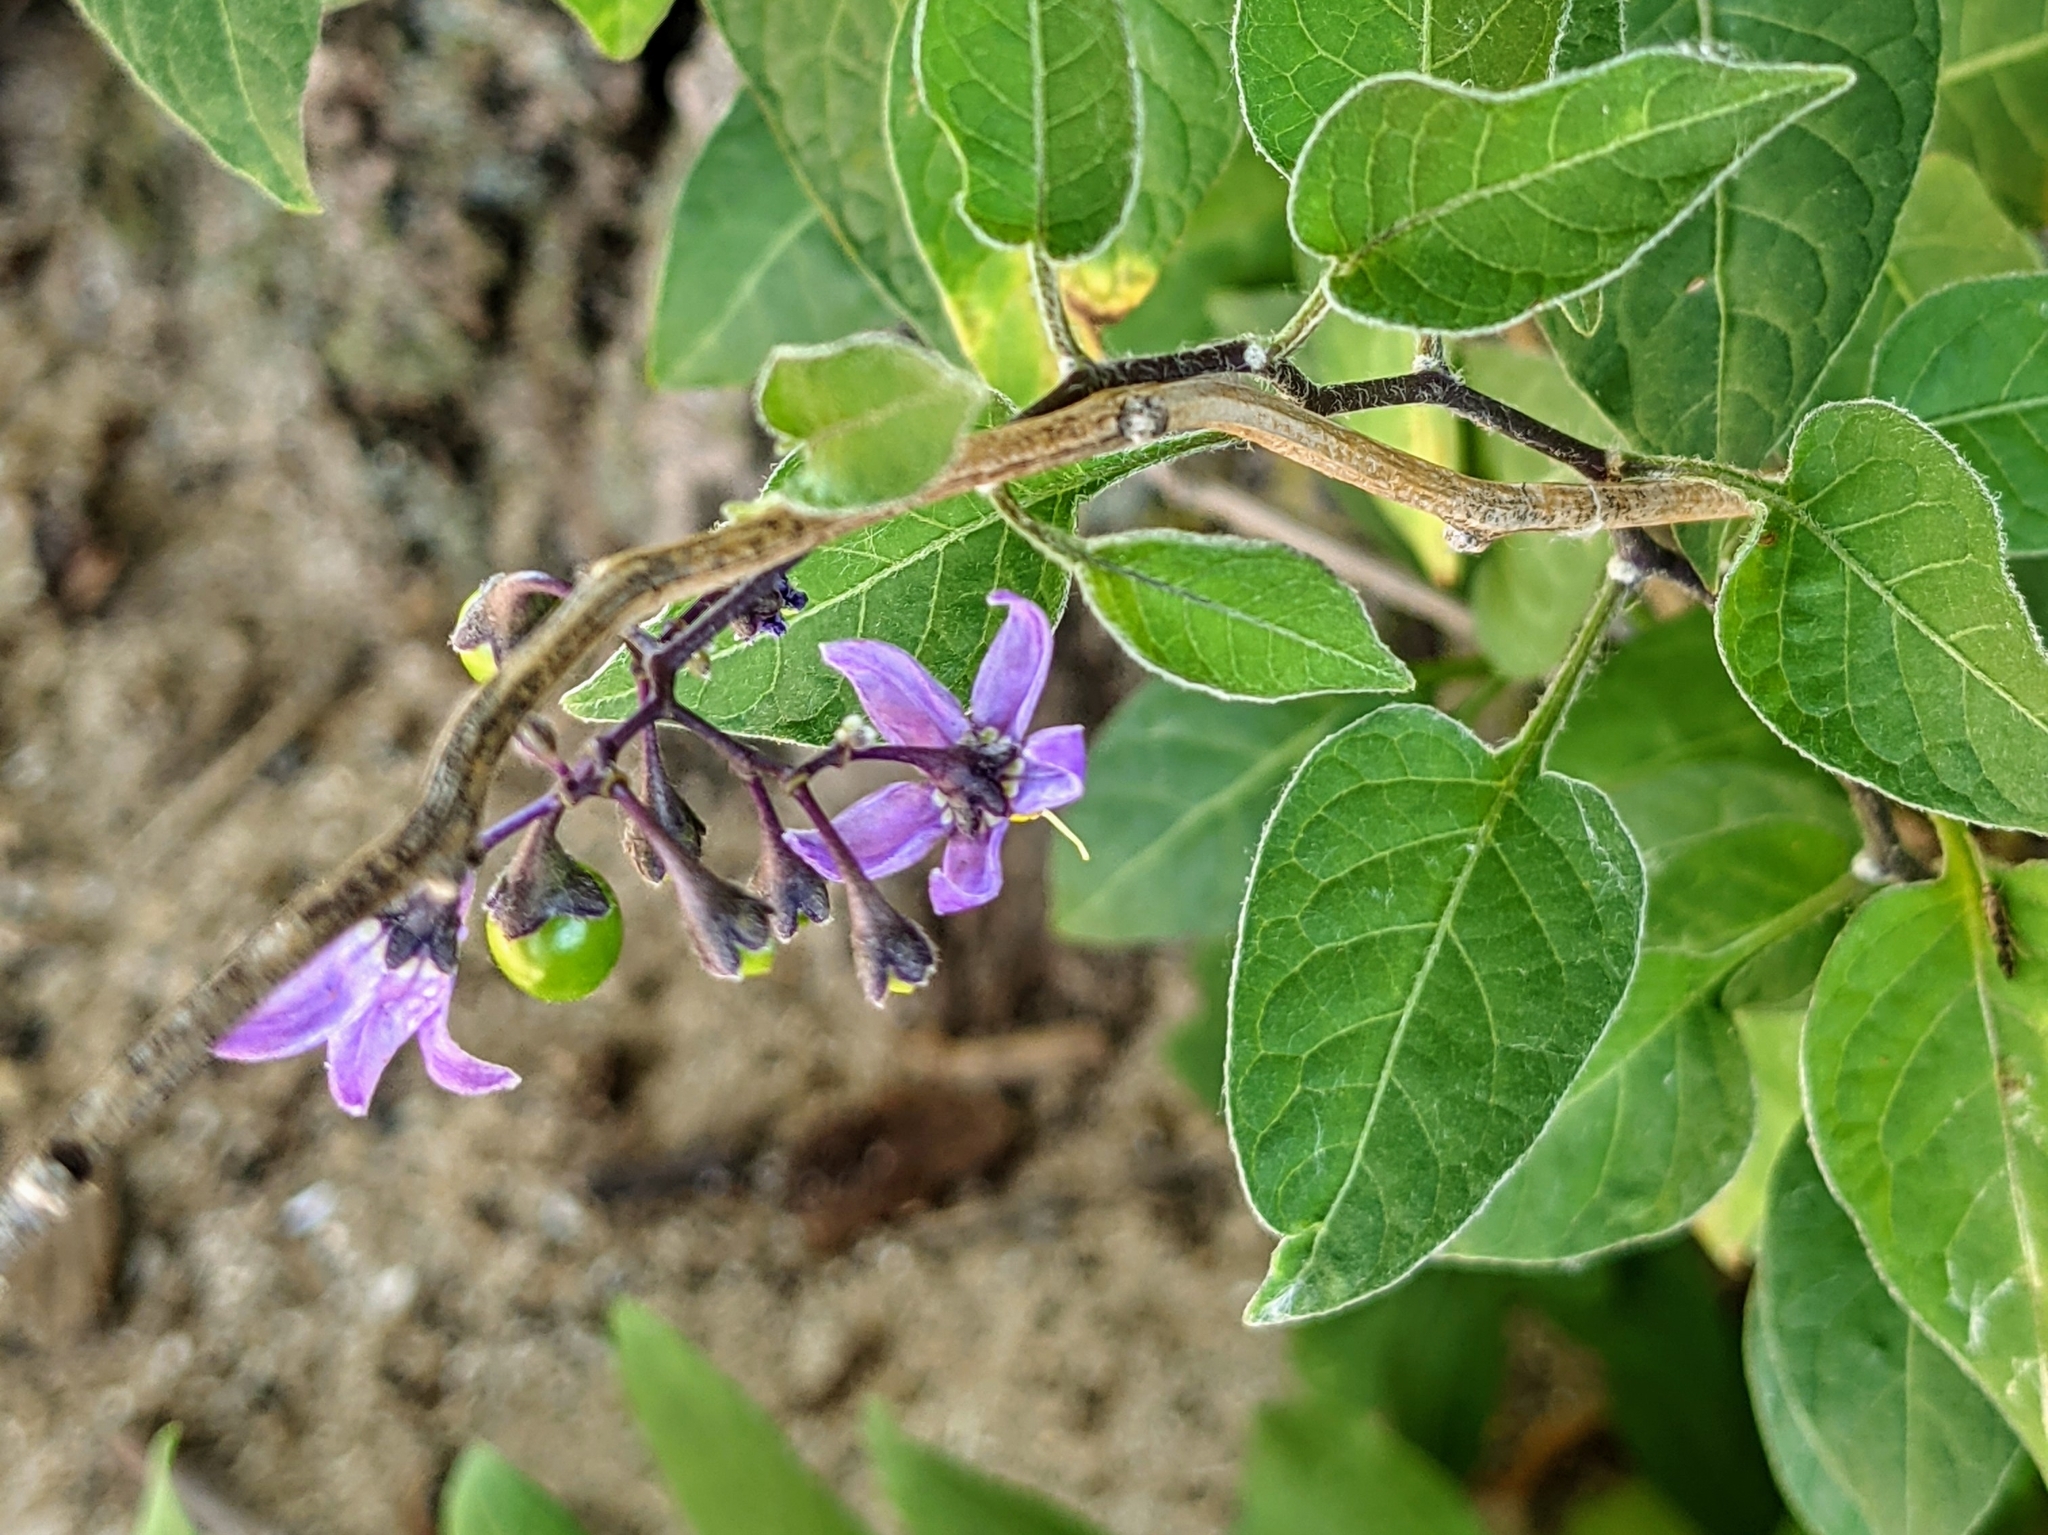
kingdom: Plantae
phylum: Tracheophyta
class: Magnoliopsida
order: Solanales
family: Solanaceae
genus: Solanum
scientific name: Solanum dulcamara
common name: Climbing nightshade
